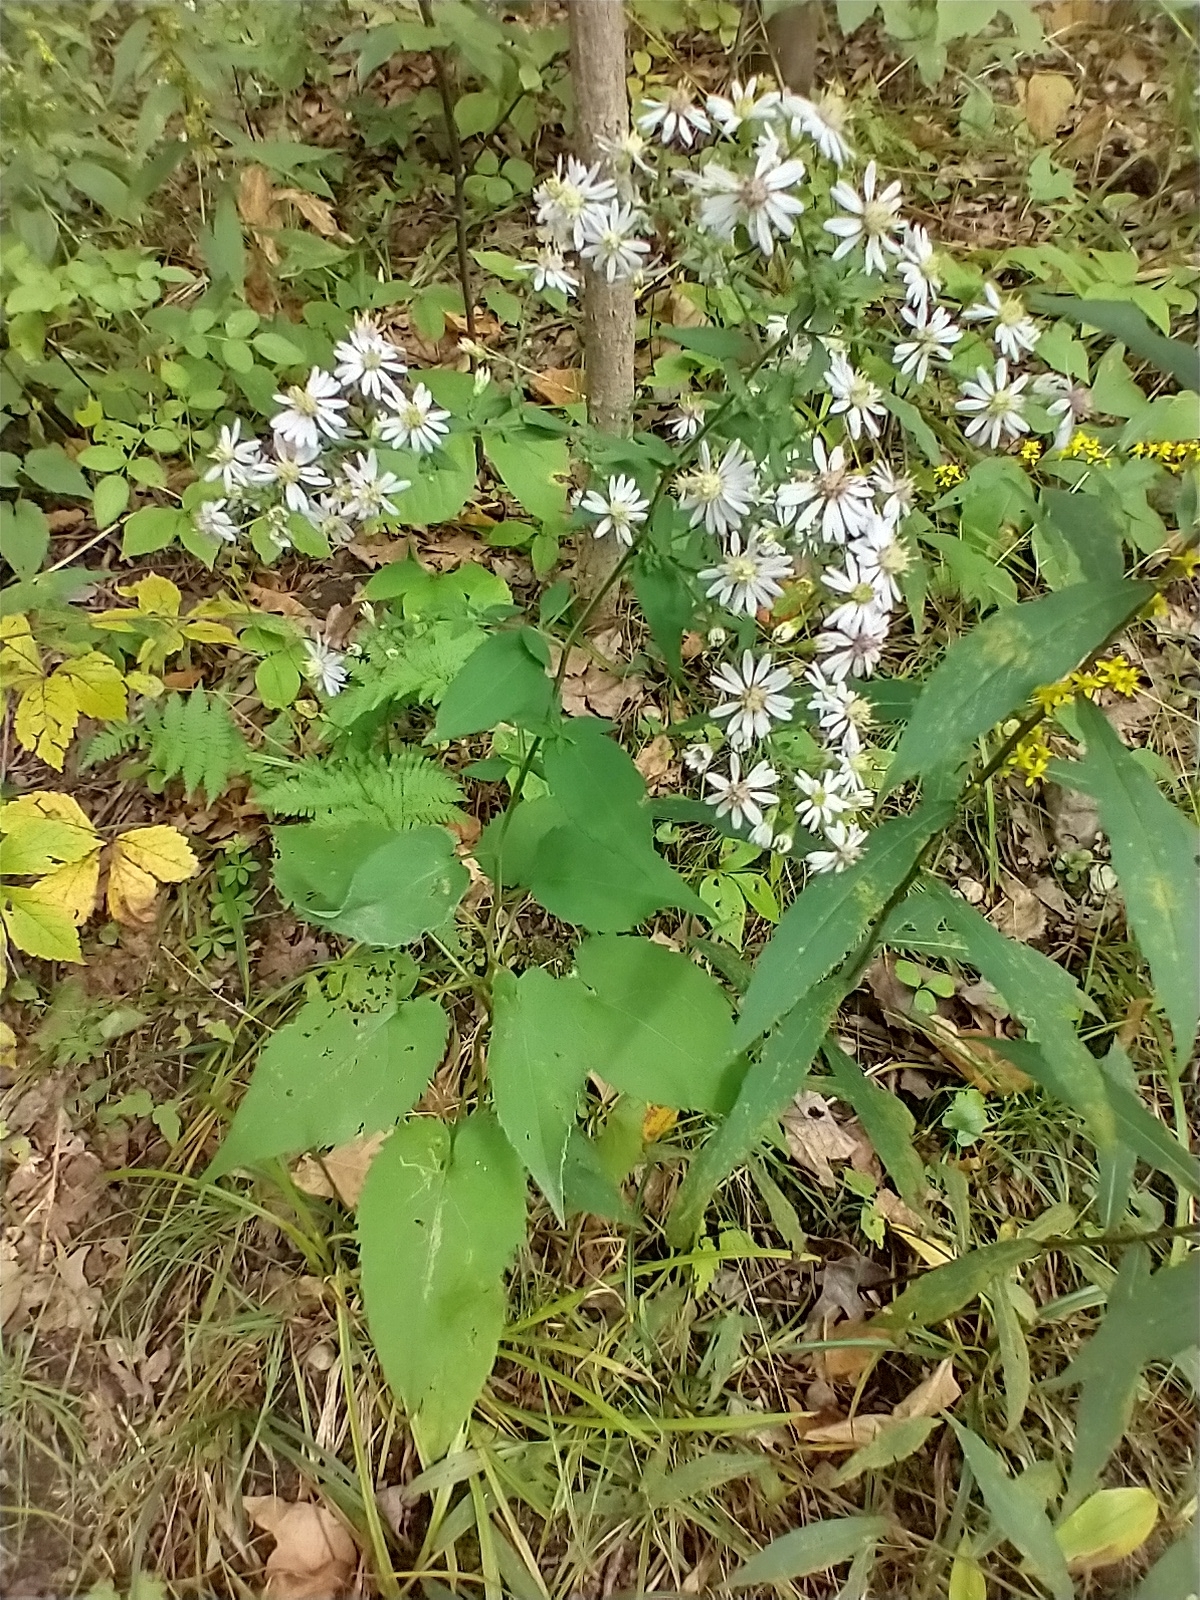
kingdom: Plantae
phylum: Tracheophyta
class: Magnoliopsida
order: Asterales
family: Asteraceae
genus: Symphyotrichum
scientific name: Symphyotrichum cordifolium
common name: Beeweed
